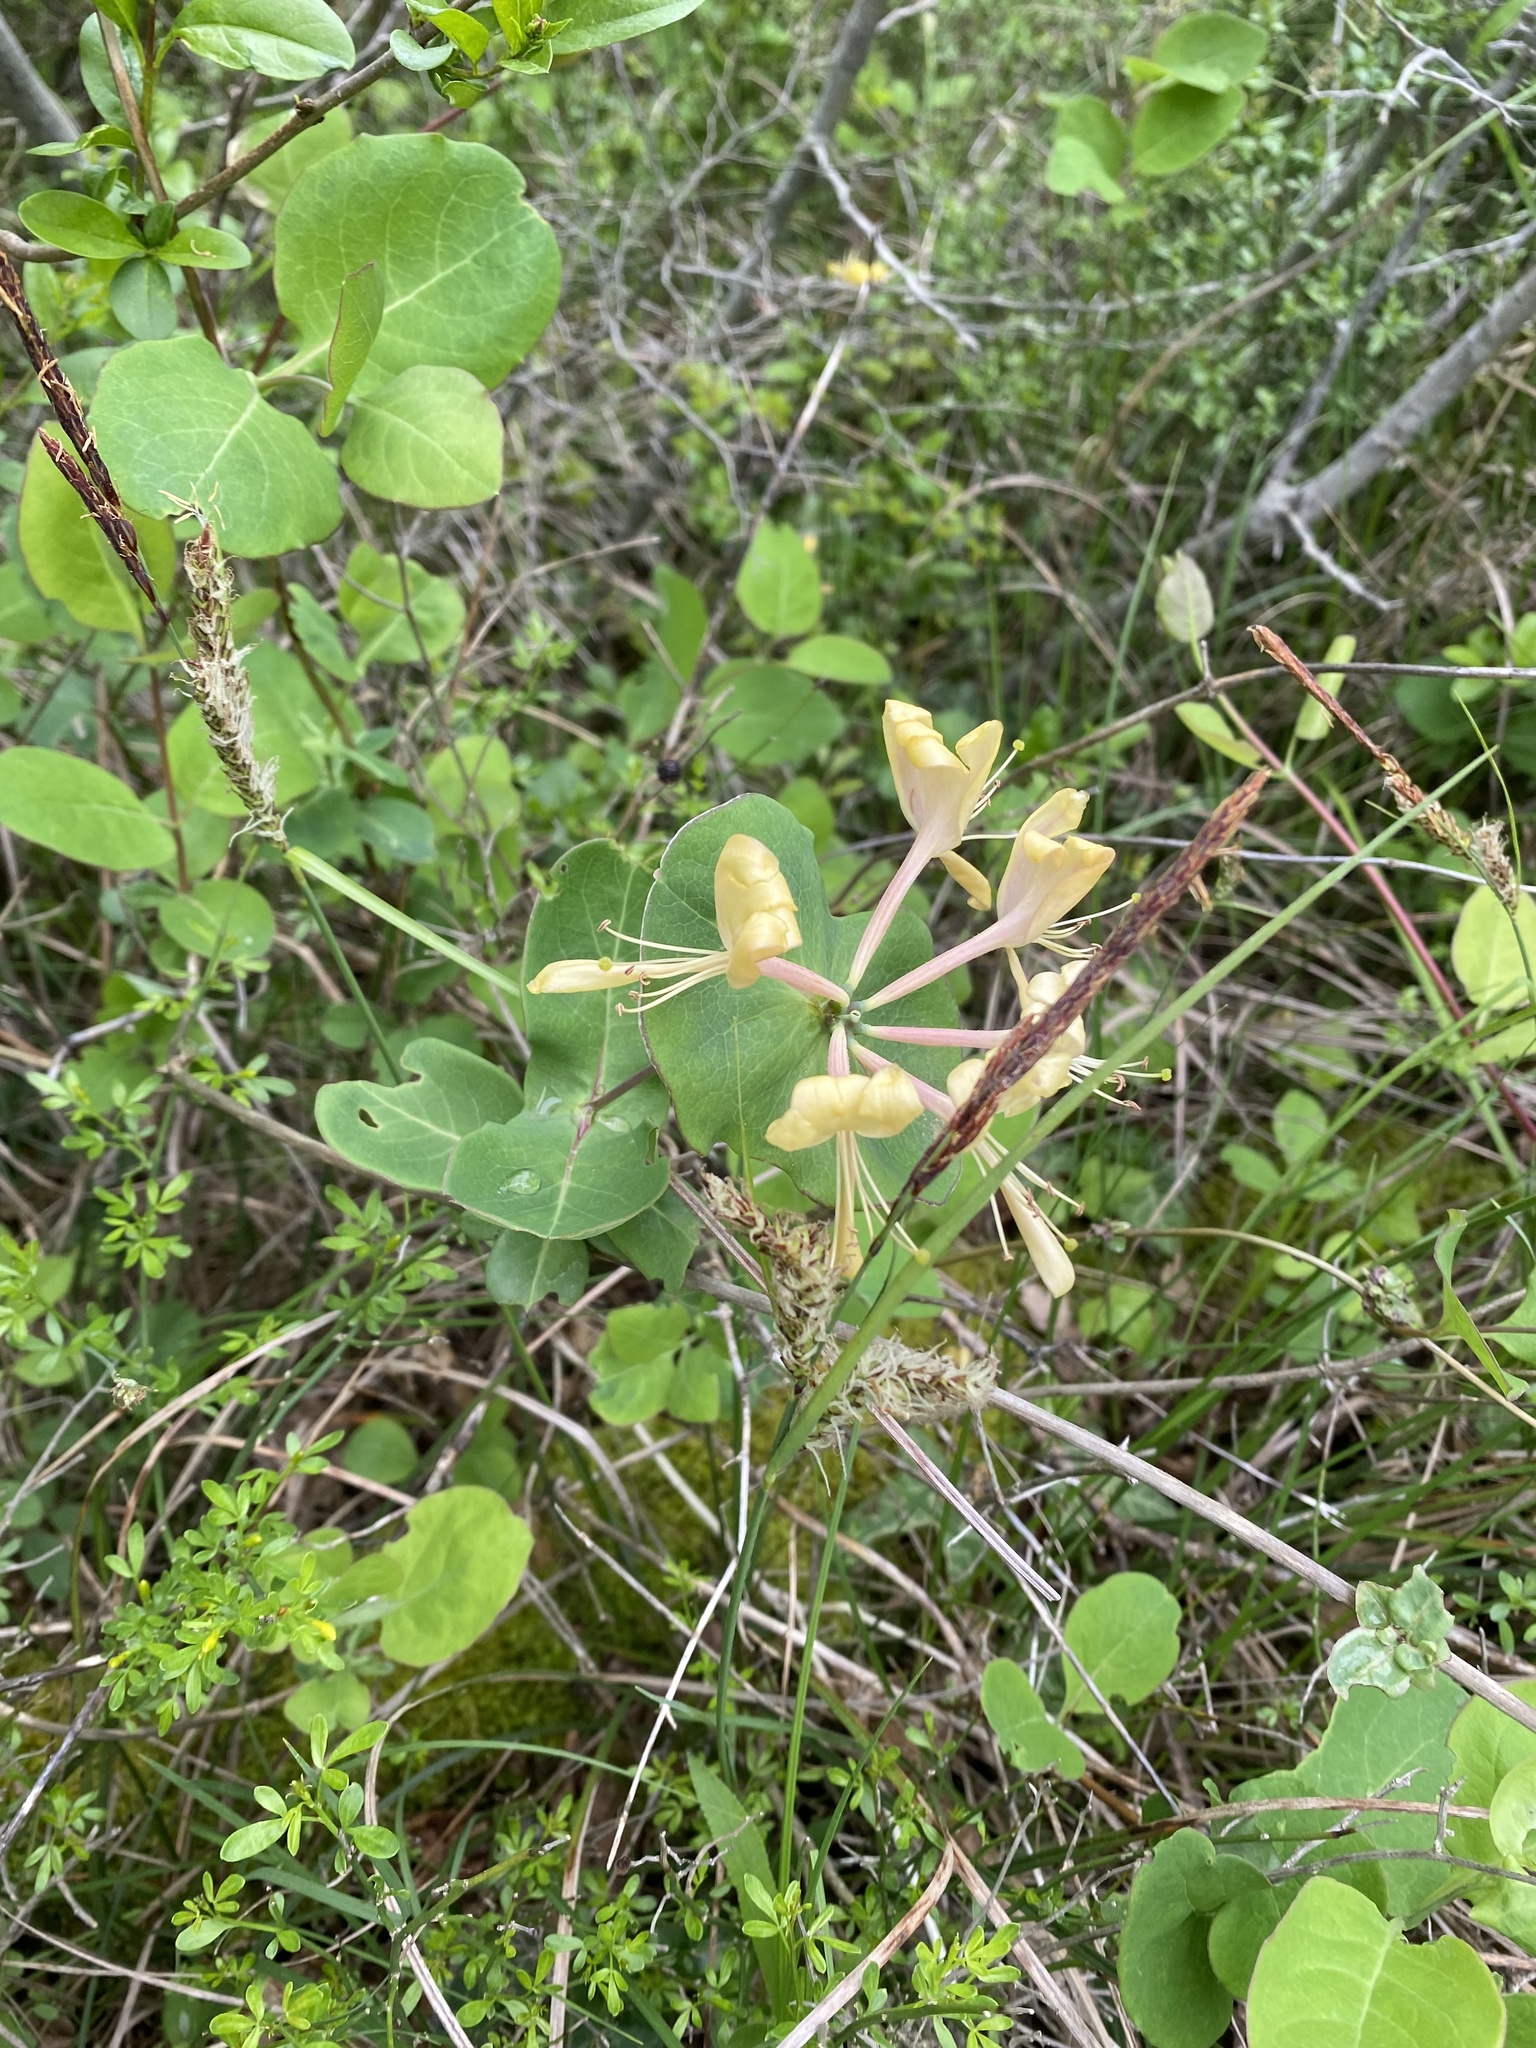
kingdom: Plantae
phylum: Tracheophyta
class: Magnoliopsida
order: Dipsacales
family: Caprifoliaceae
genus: Lonicera
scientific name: Lonicera caprifolium
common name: Perfoliate honeysuckle
